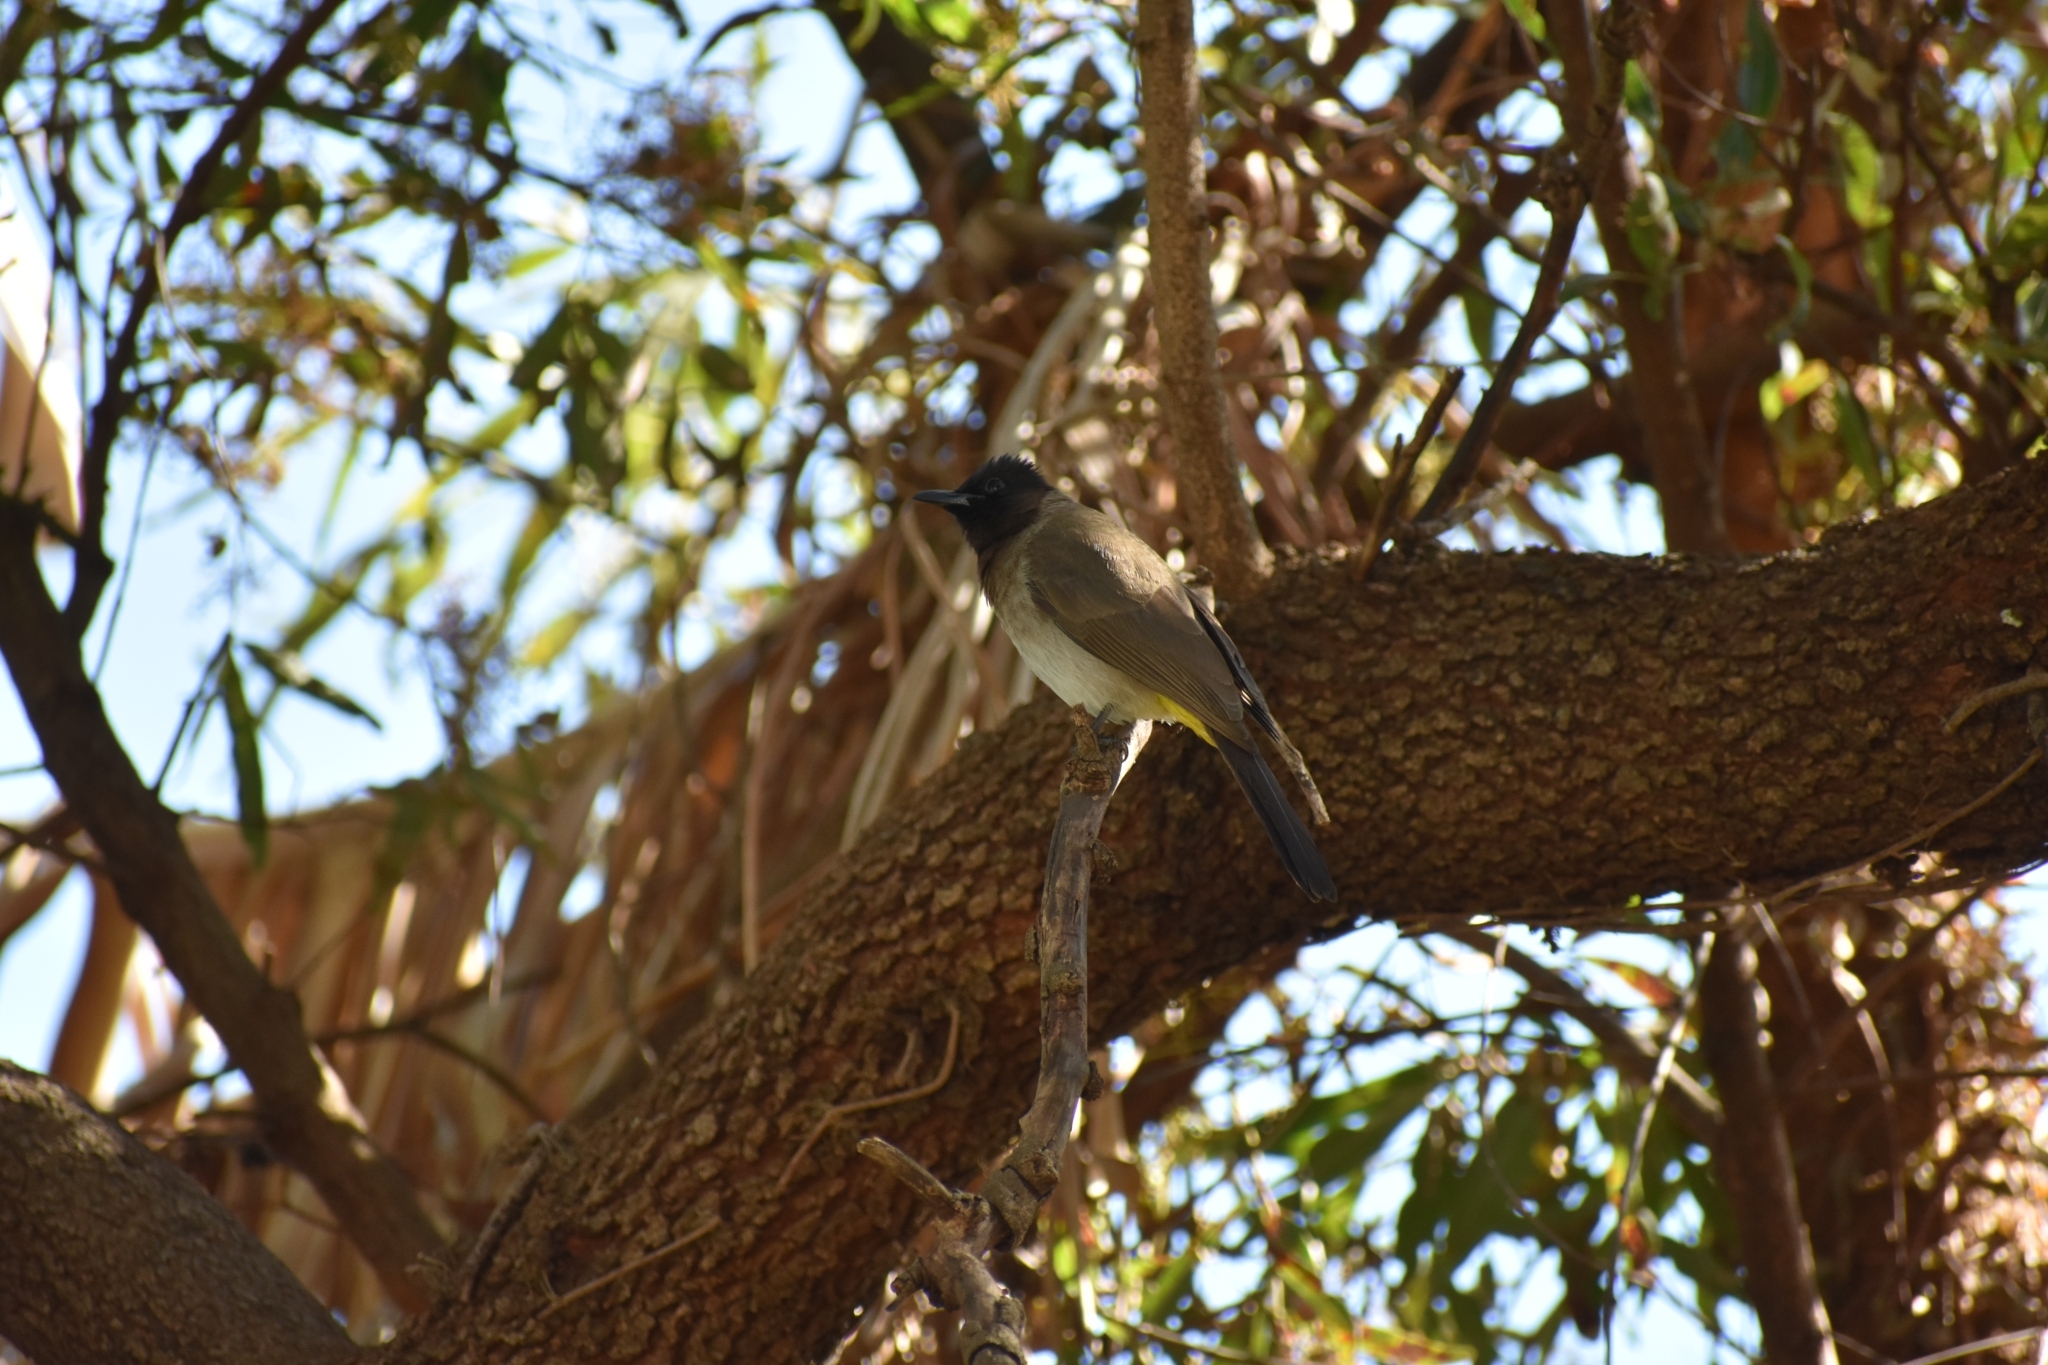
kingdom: Animalia
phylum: Chordata
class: Aves
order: Passeriformes
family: Pycnonotidae
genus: Pycnonotus
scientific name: Pycnonotus barbatus
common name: Common bulbul
